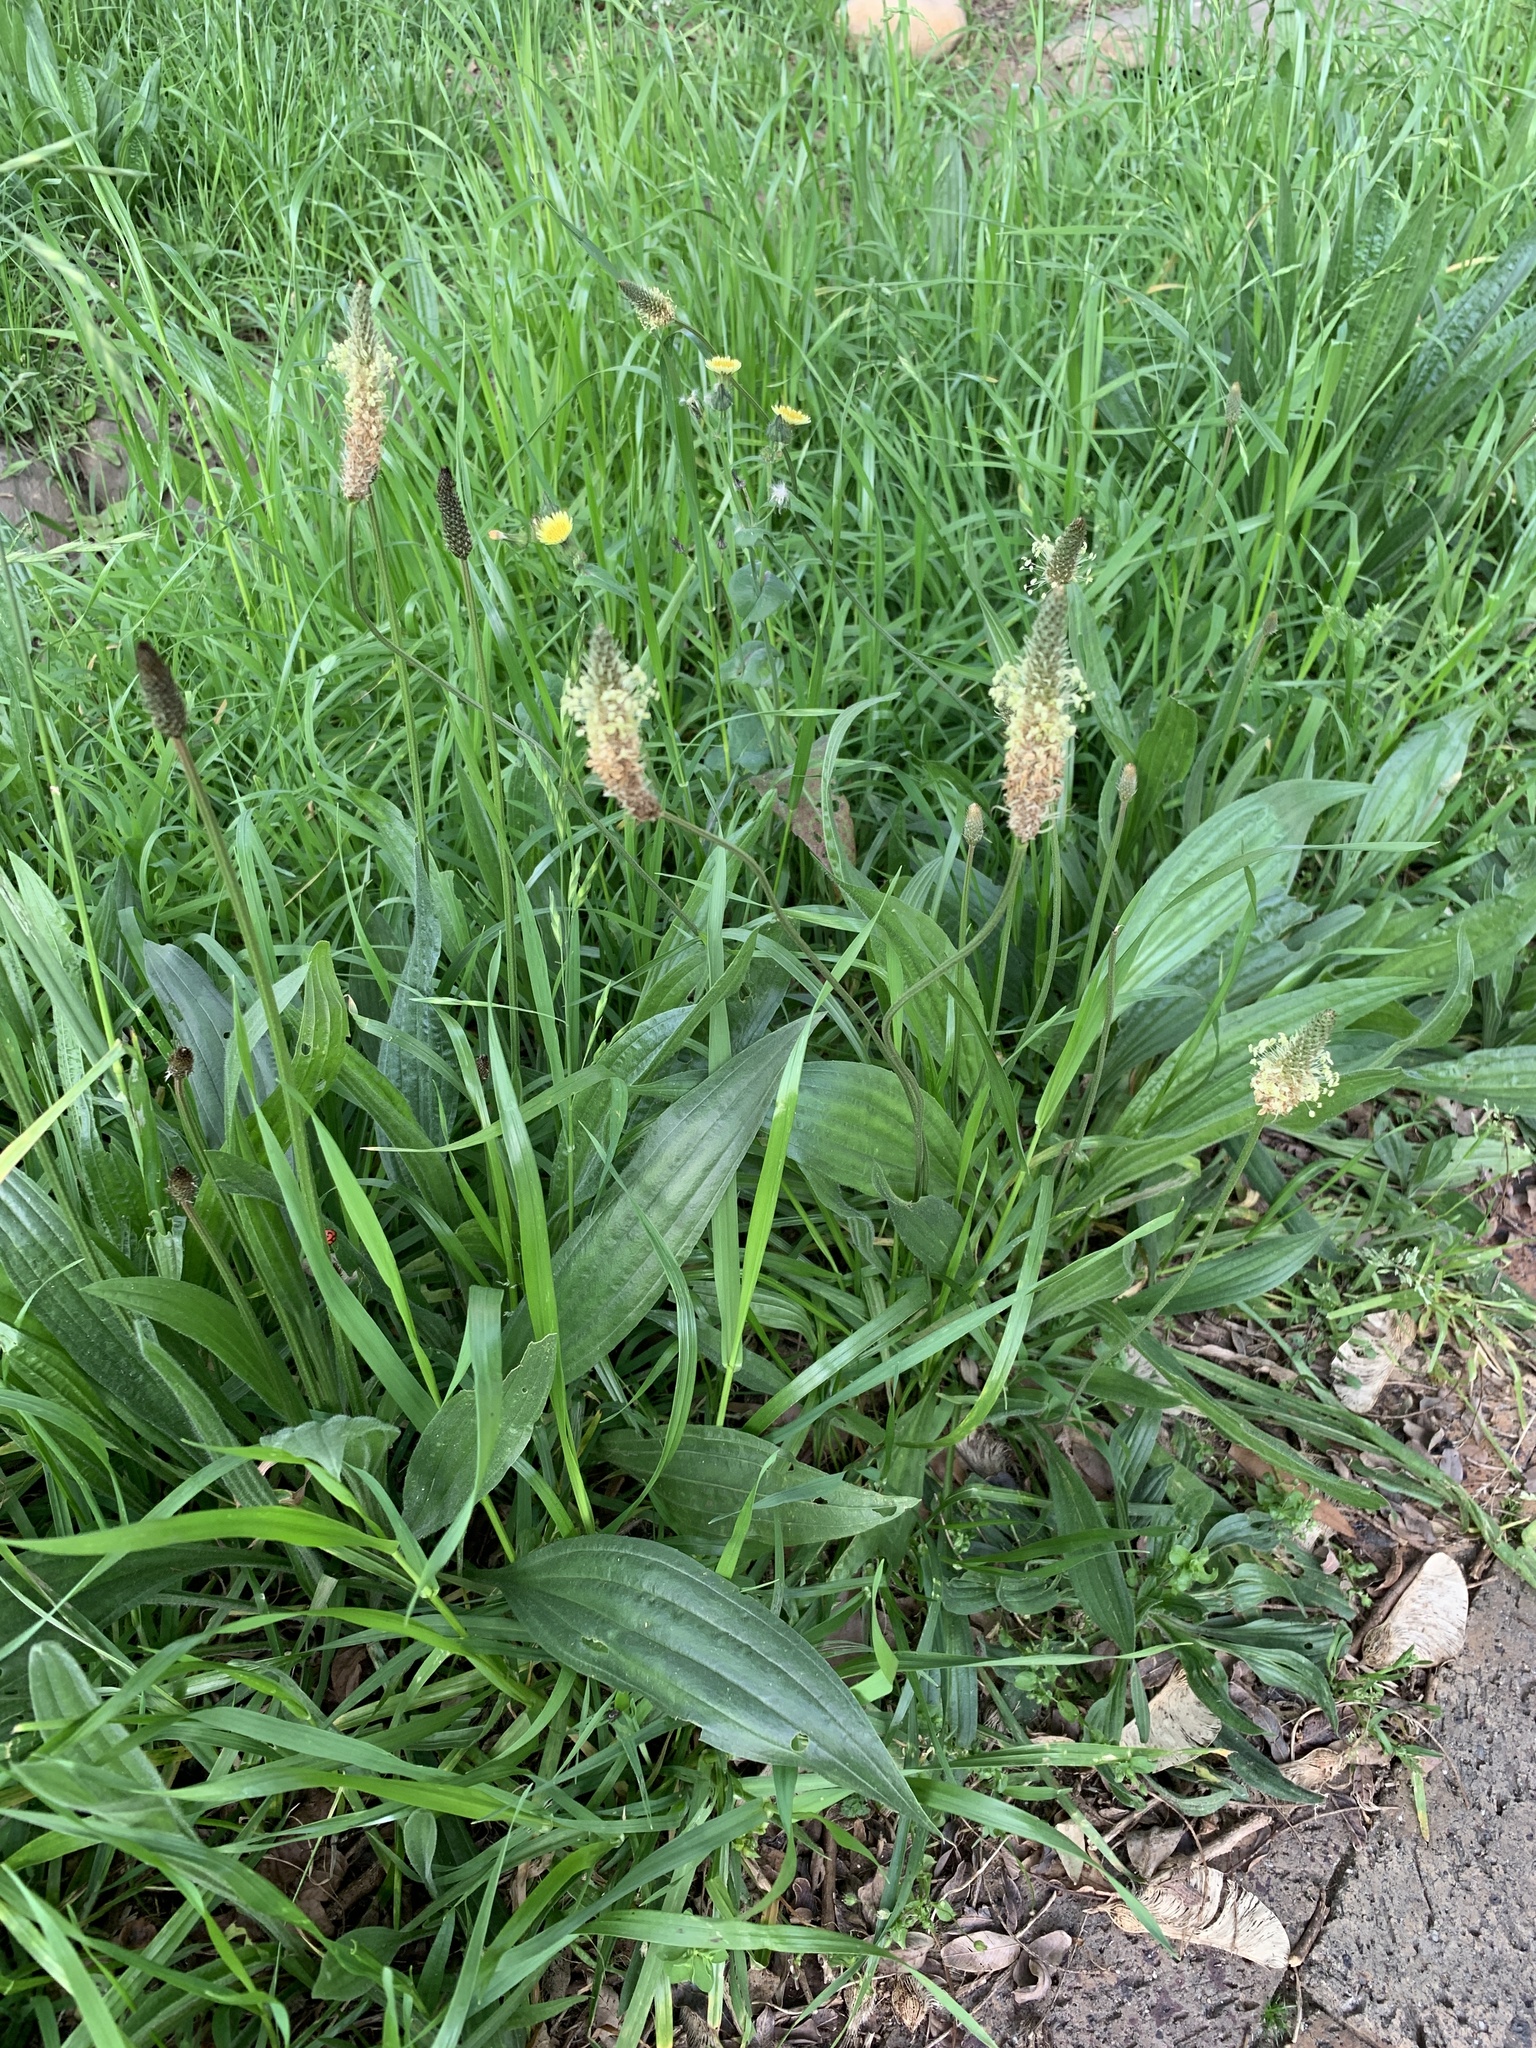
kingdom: Plantae
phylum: Tracheophyta
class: Magnoliopsida
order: Lamiales
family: Plantaginaceae
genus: Plantago
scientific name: Plantago lanceolata
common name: Ribwort plantain
